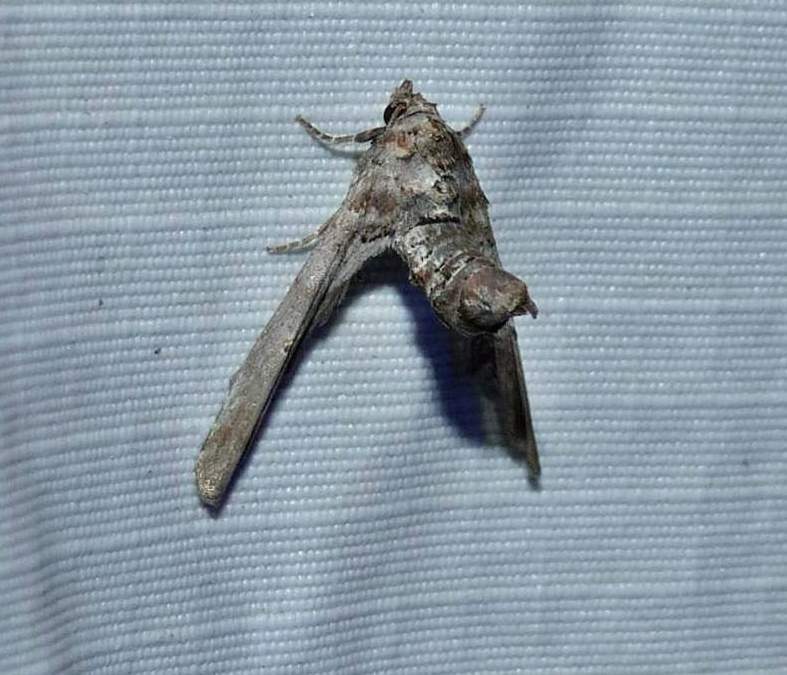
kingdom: Animalia
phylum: Arthropoda
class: Insecta
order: Lepidoptera
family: Euteliidae
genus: Marathyssa
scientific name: Marathyssa inficita
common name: Dark marathyssa moth
